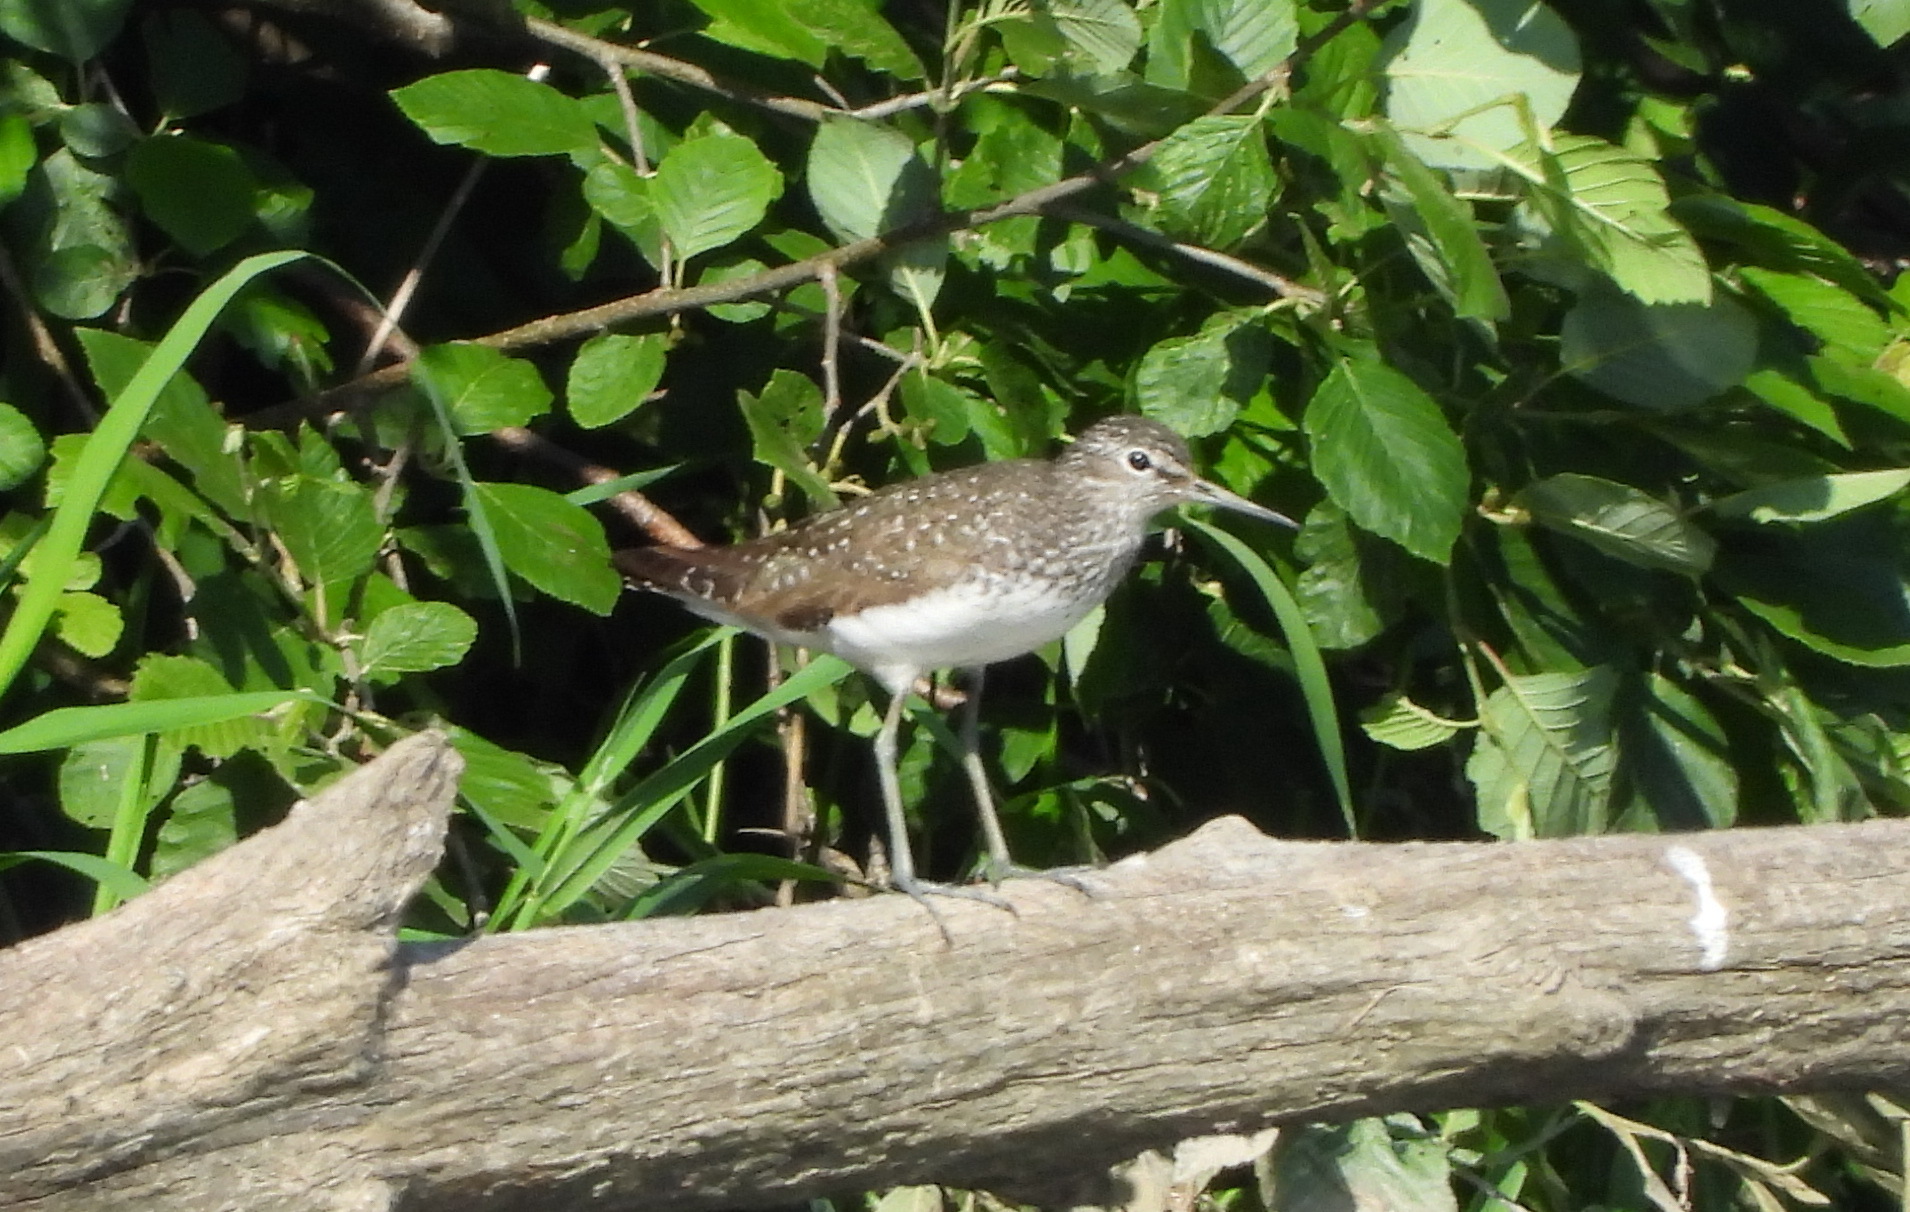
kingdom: Animalia
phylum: Chordata
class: Aves
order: Charadriiformes
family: Scolopacidae
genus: Tringa
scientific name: Tringa ochropus
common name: Green sandpiper
